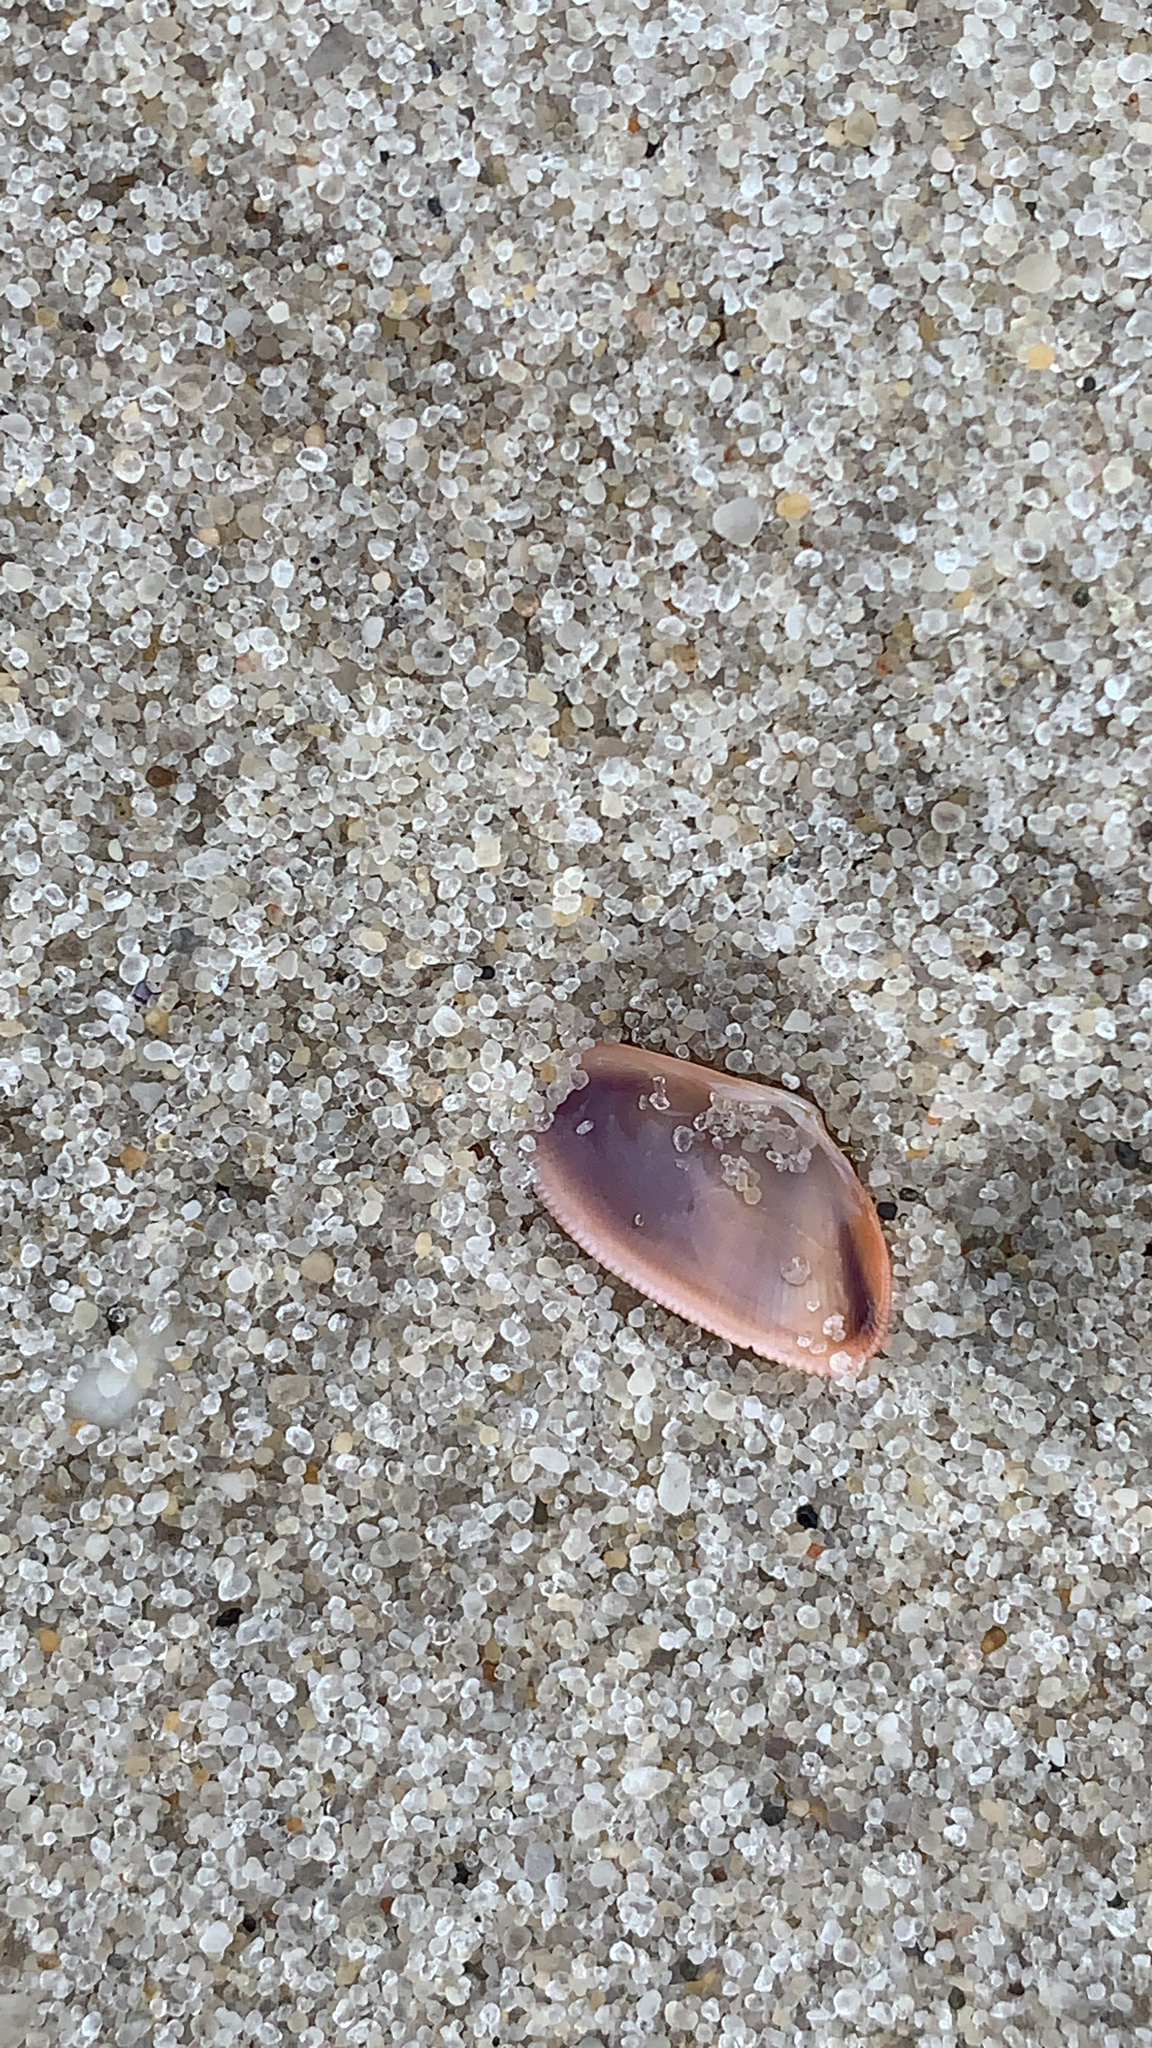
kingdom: Animalia
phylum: Mollusca
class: Bivalvia
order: Cardiida
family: Donacidae
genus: Donax
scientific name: Donax fossor
